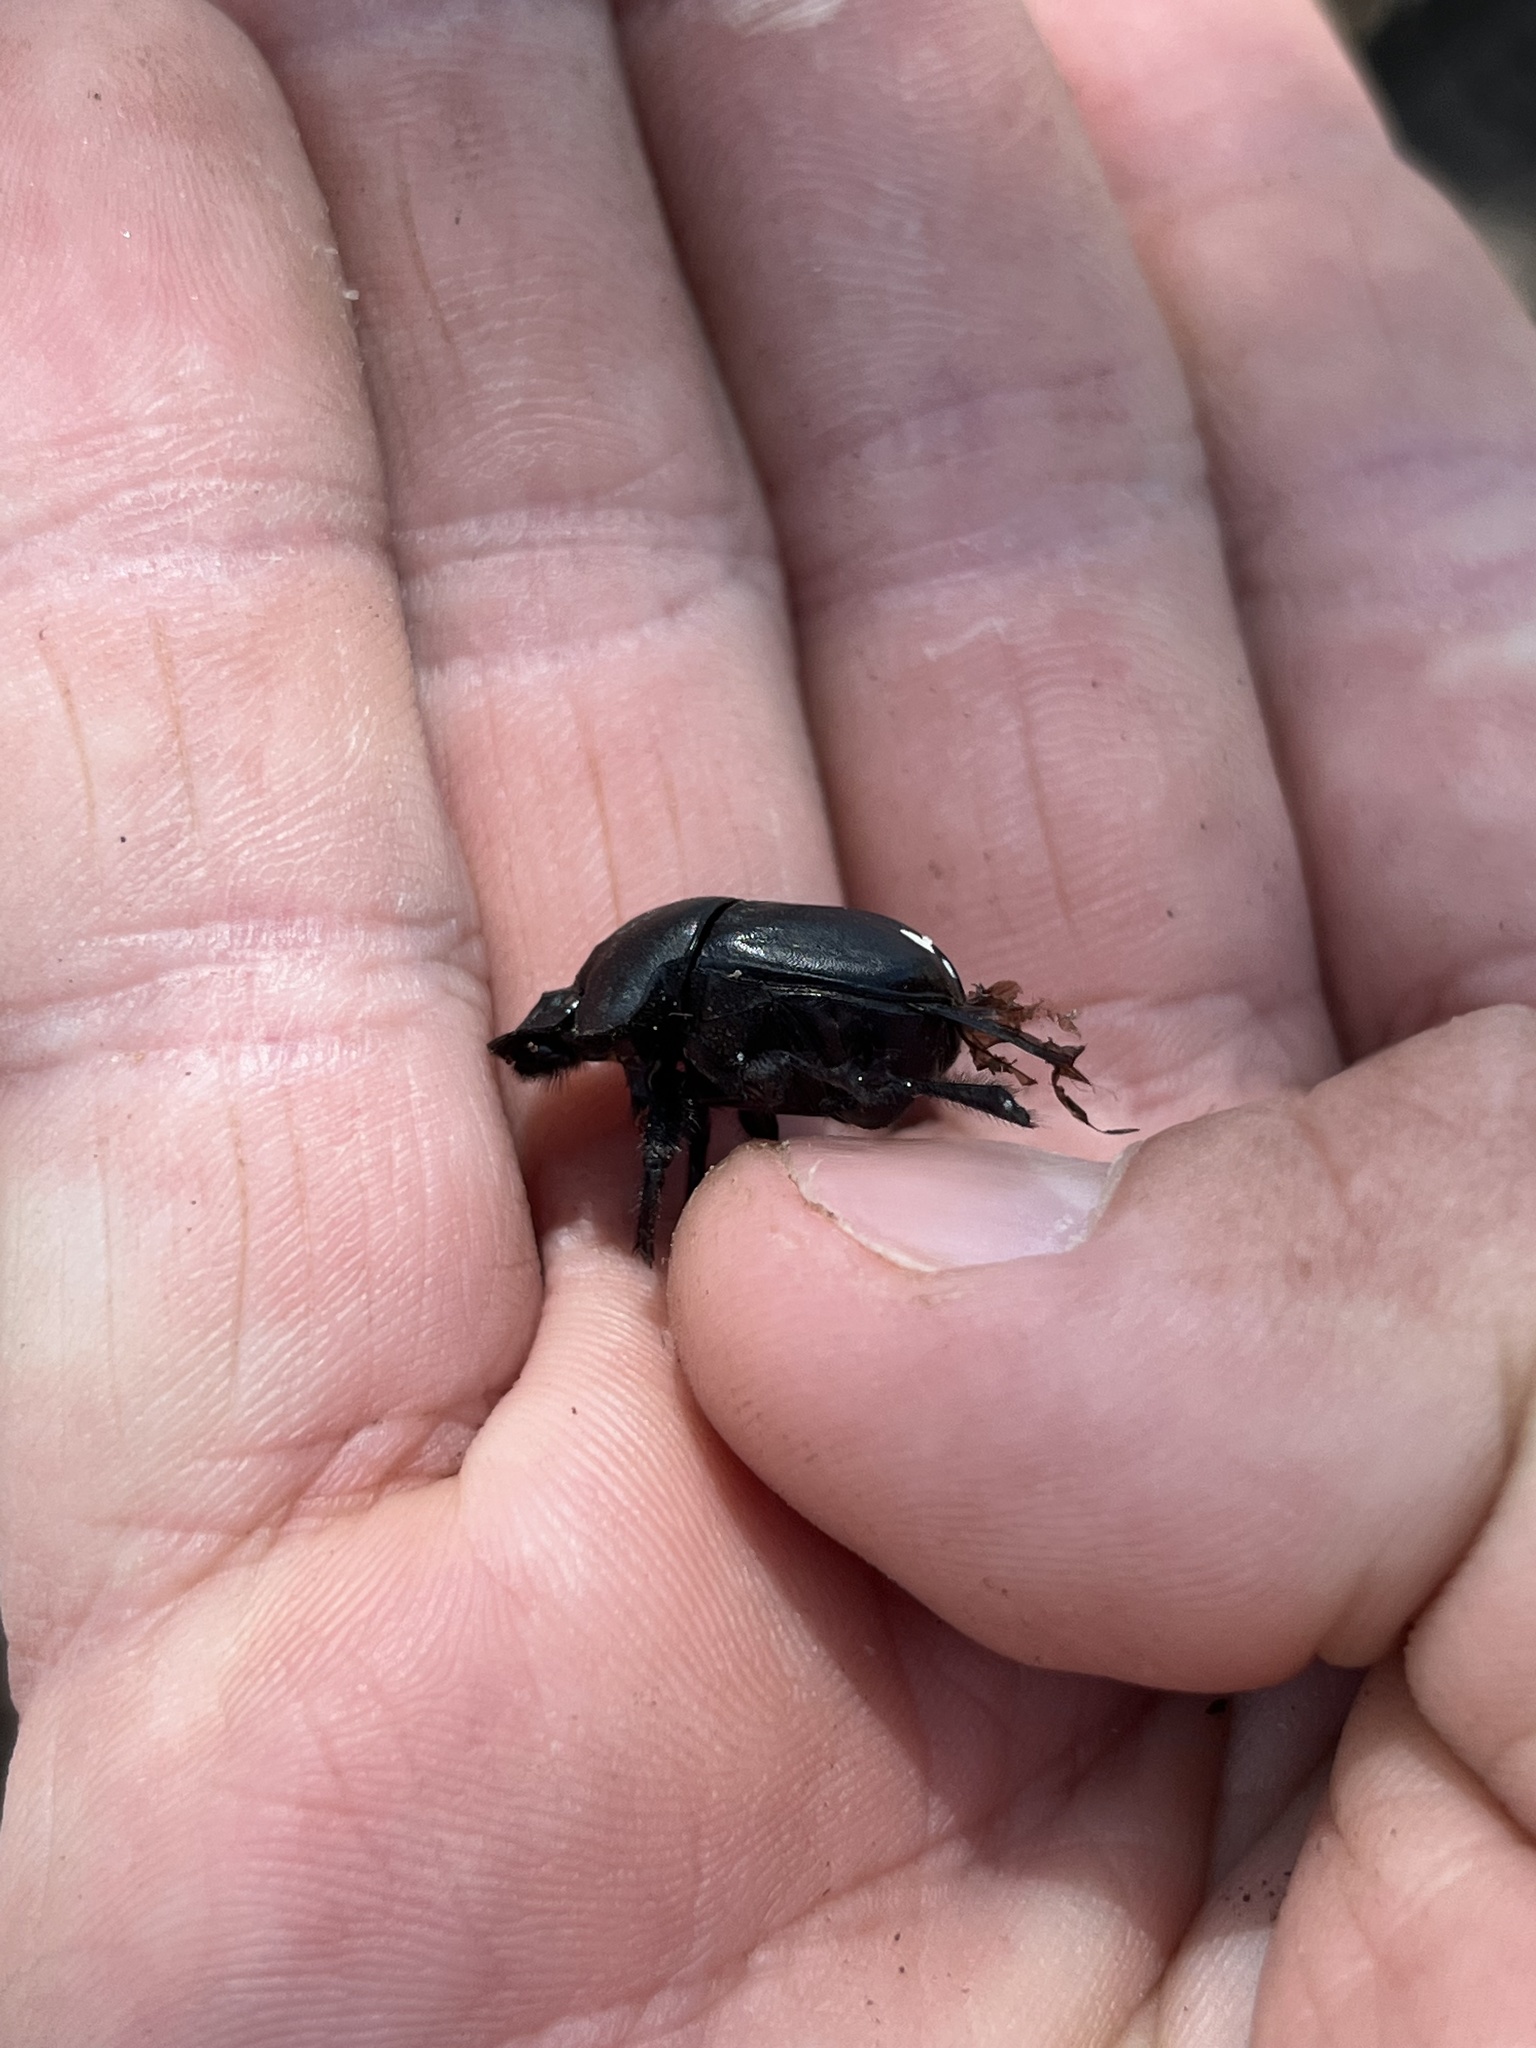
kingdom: Animalia
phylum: Arthropoda
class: Insecta
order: Coleoptera
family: Scarabaeidae
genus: Phanaeus
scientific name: Phanaeus texensis
